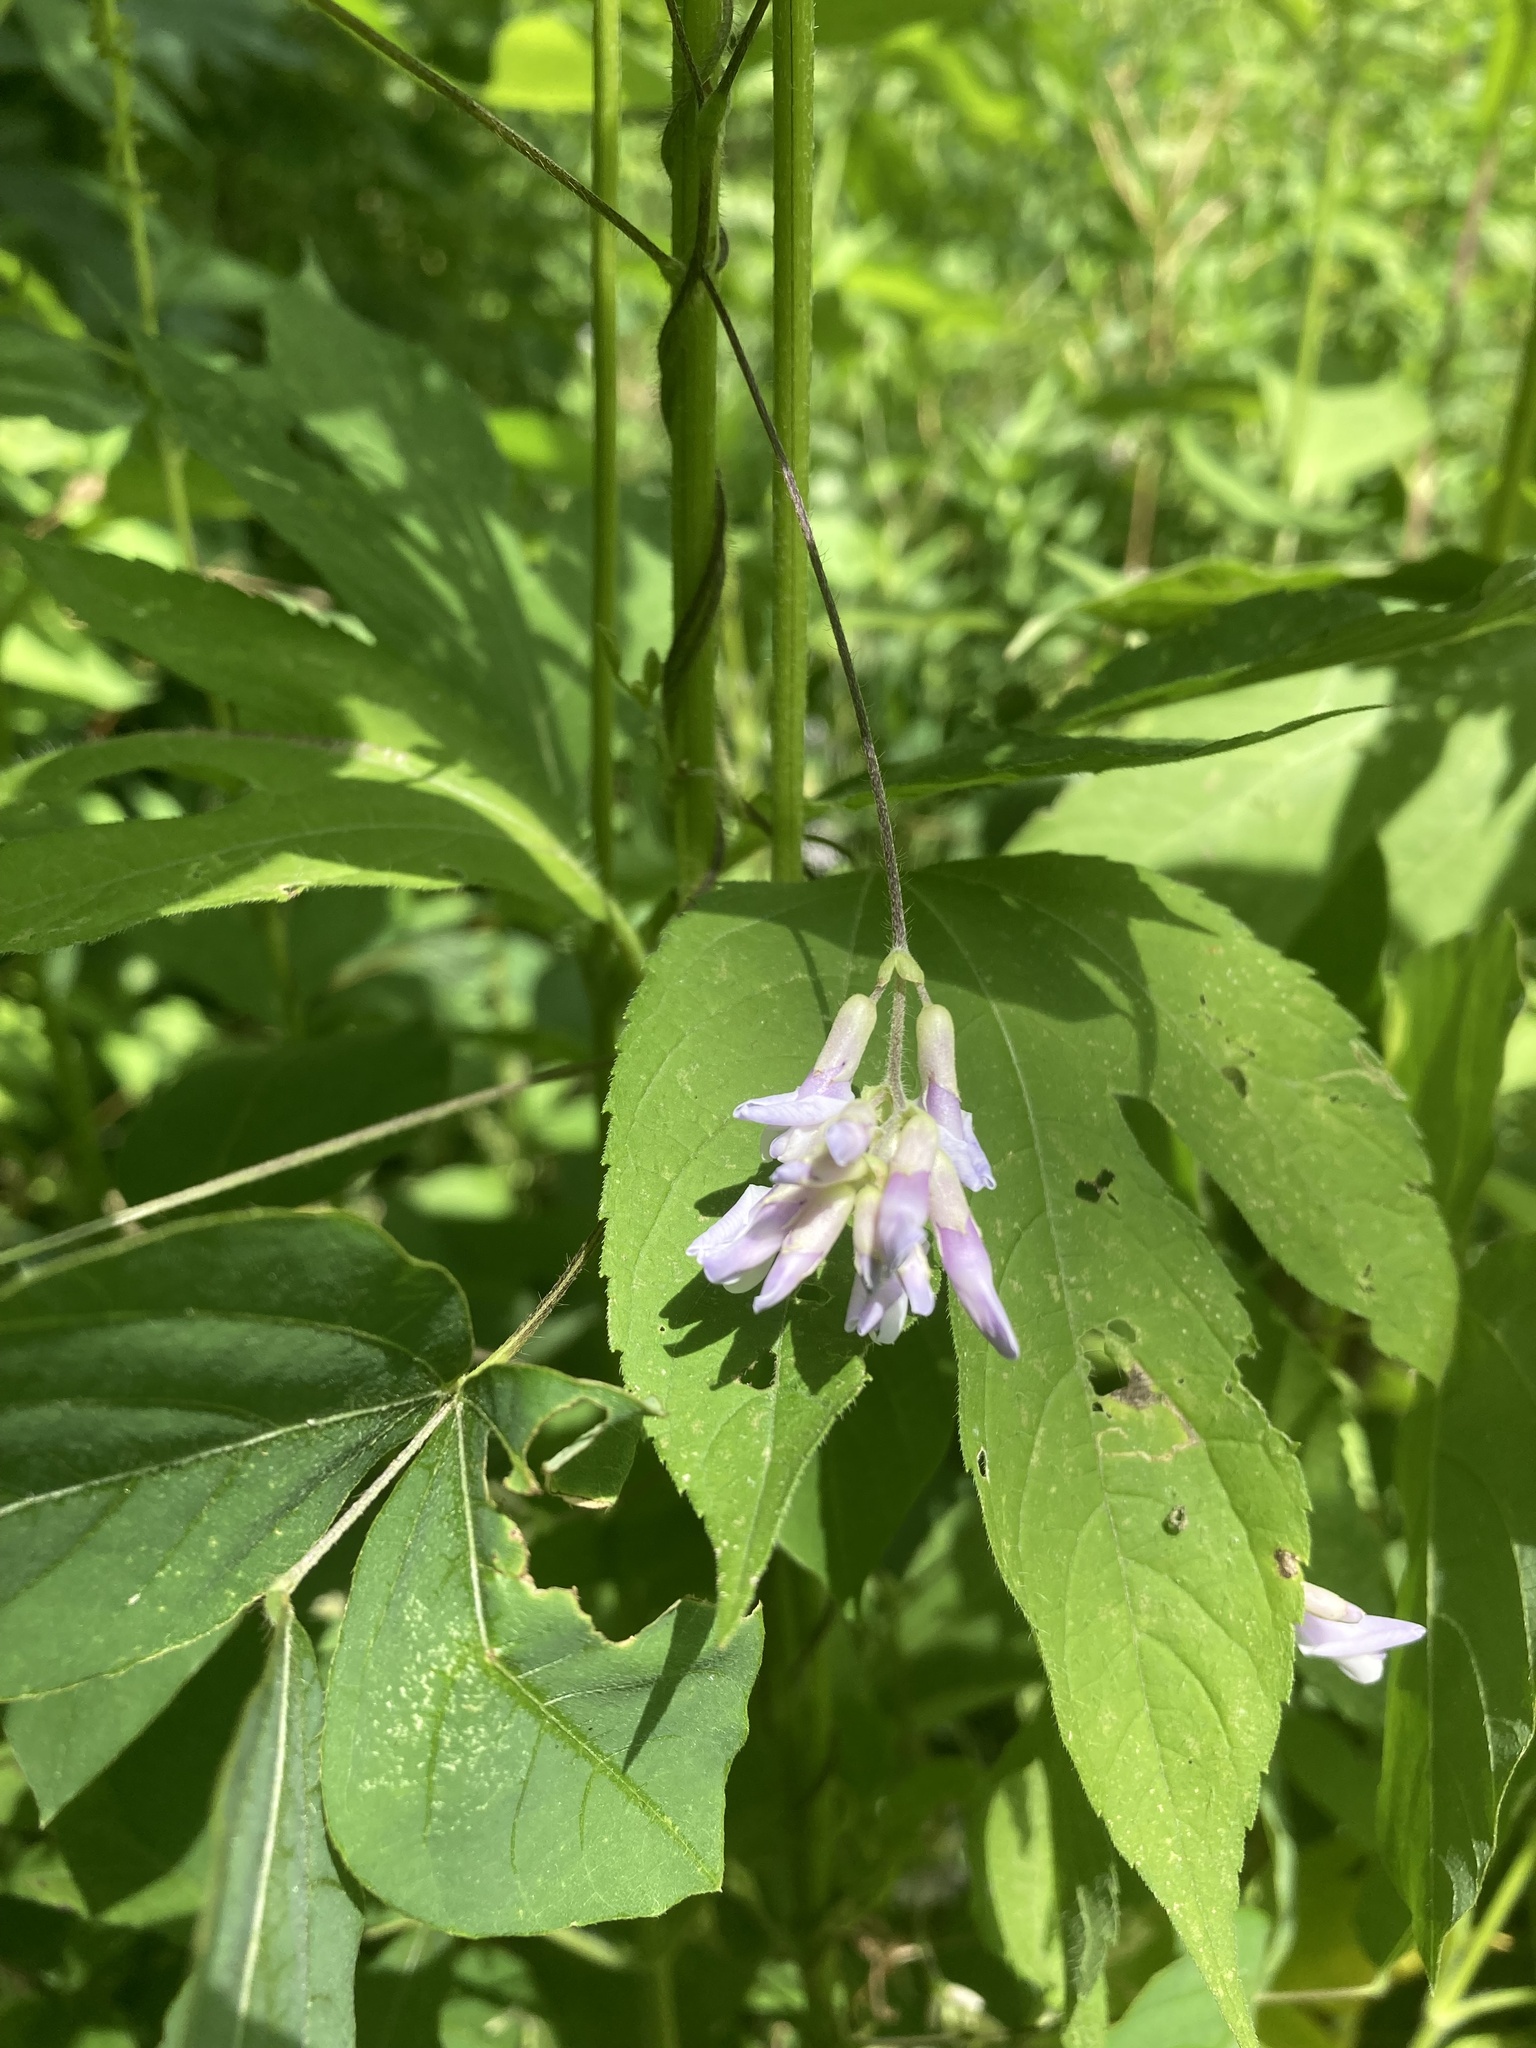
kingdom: Plantae
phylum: Tracheophyta
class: Magnoliopsida
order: Fabales
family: Fabaceae
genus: Amphicarpaea
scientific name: Amphicarpaea bracteata
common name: American hog peanut
